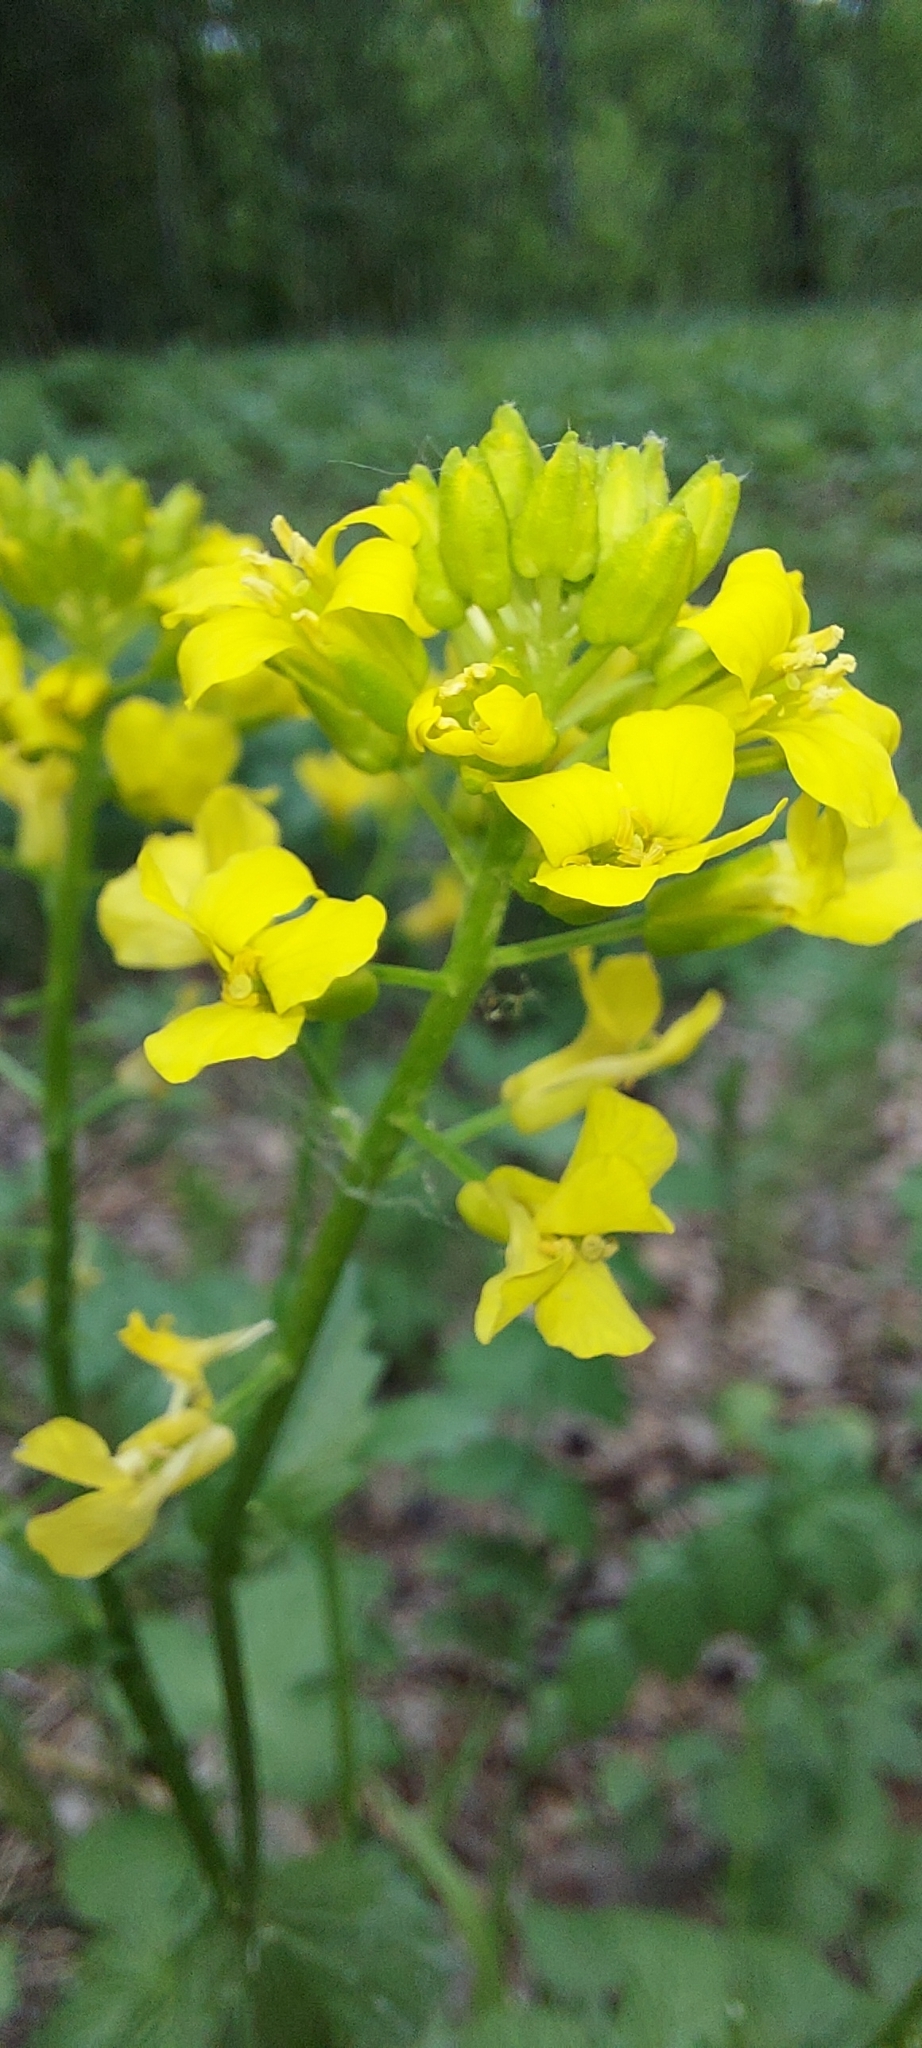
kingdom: Plantae
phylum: Tracheophyta
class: Magnoliopsida
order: Brassicales
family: Brassicaceae
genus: Barbarea
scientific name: Barbarea vulgaris
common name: Cressy-greens
